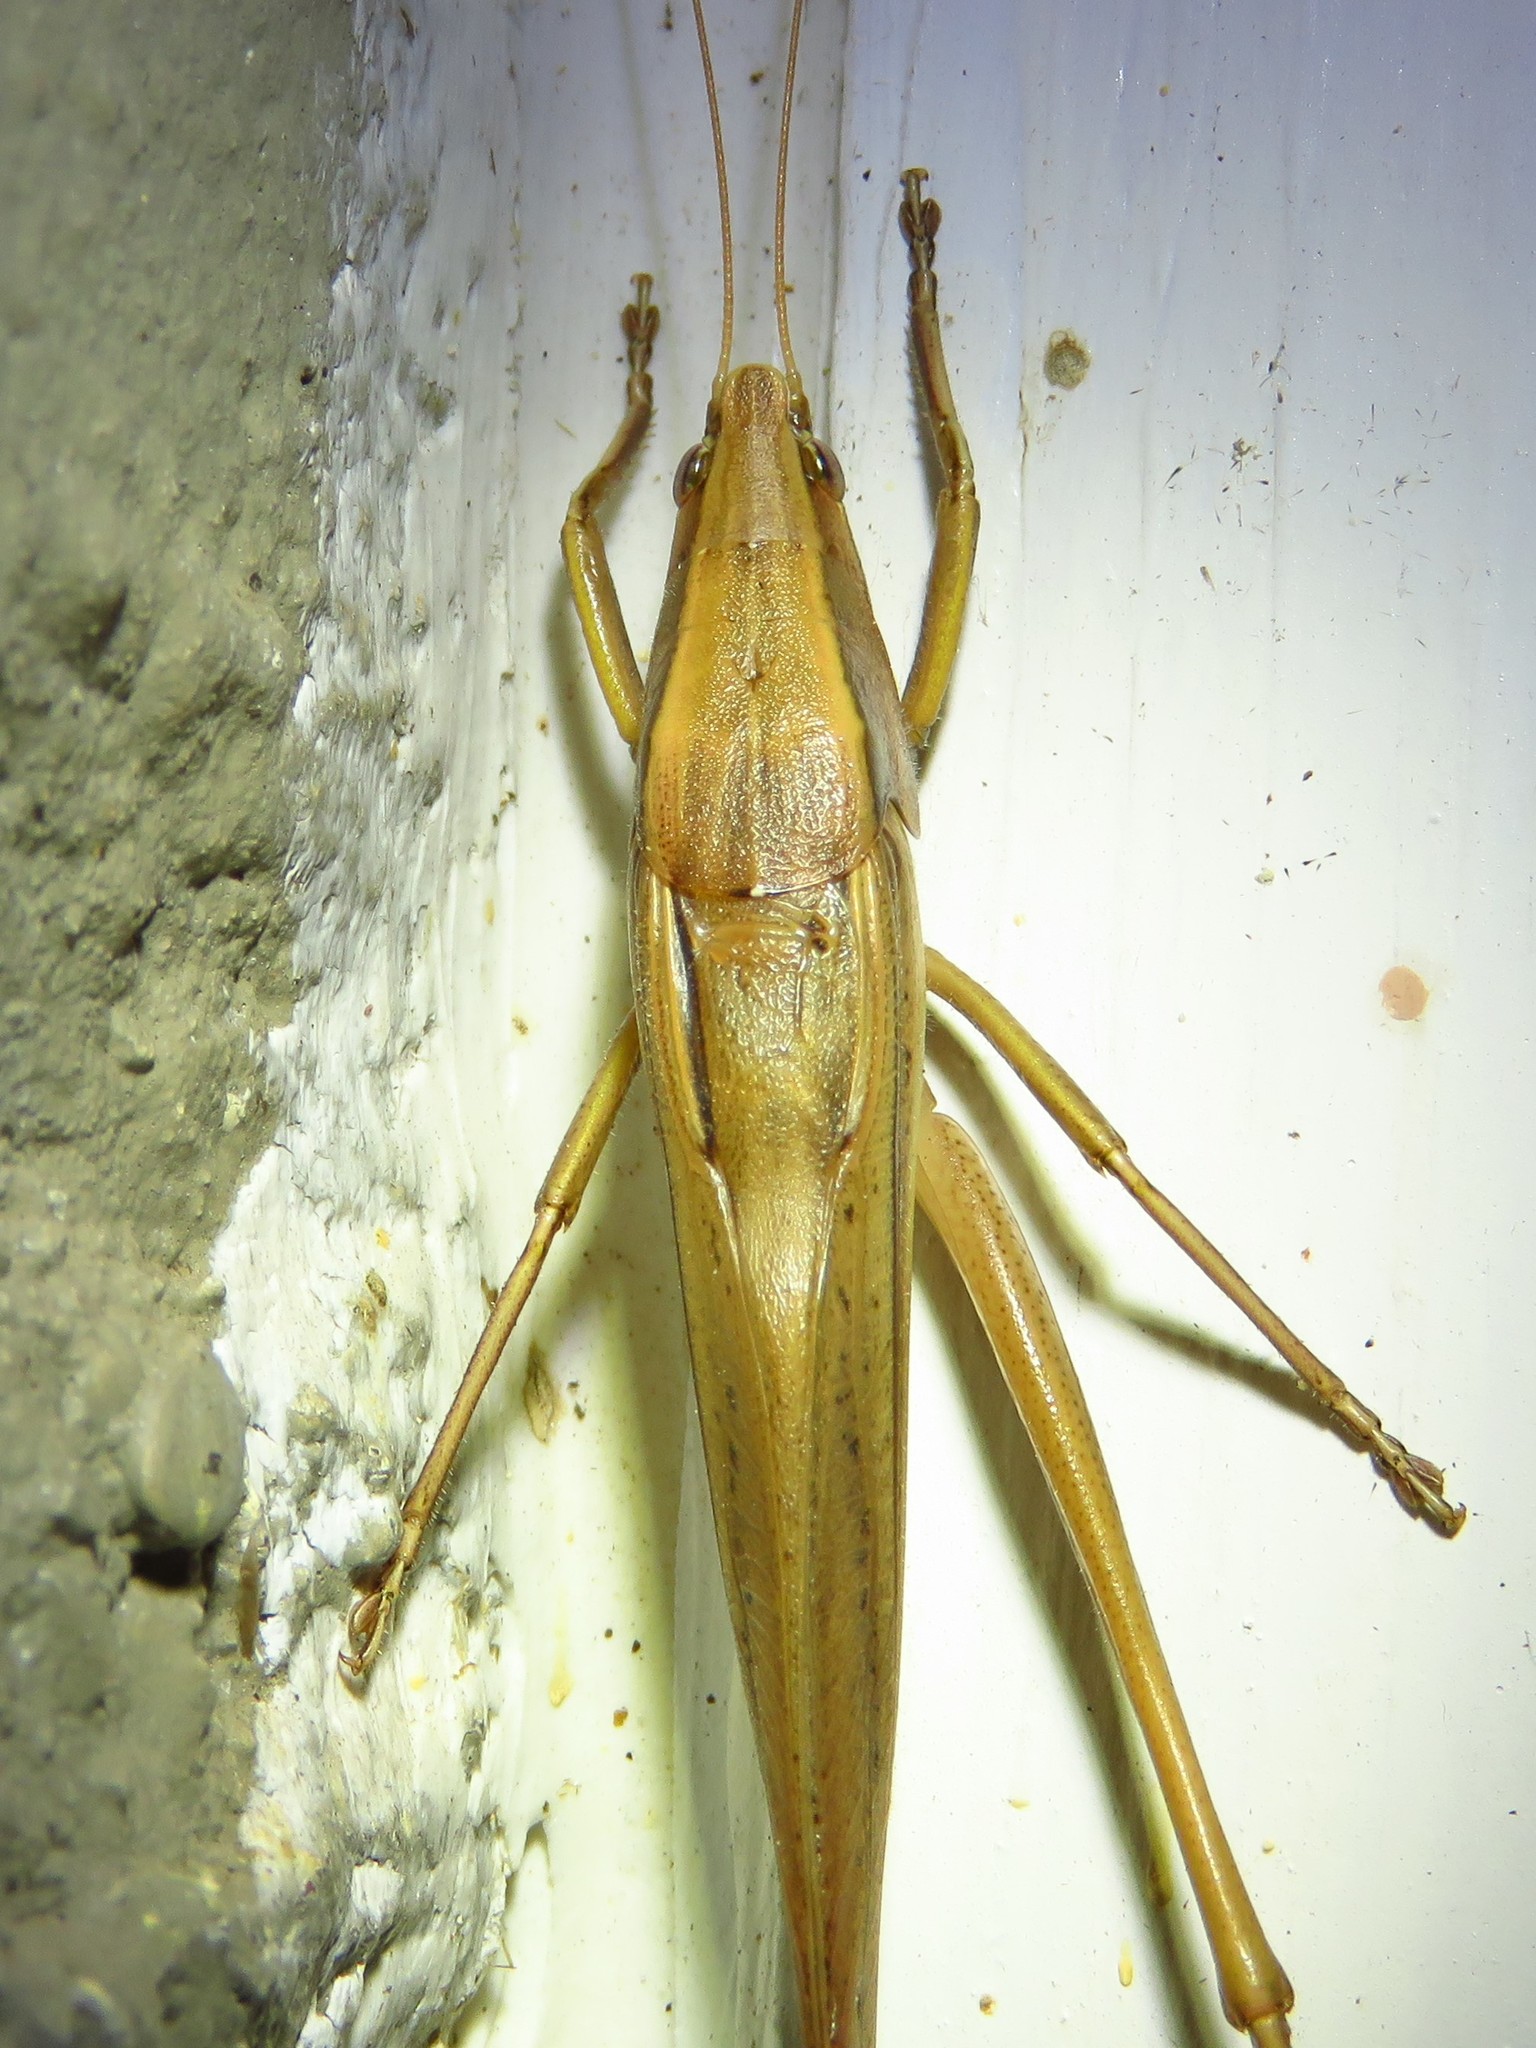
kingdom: Animalia
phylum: Arthropoda
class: Insecta
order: Orthoptera
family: Tettigoniidae
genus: Neoconocephalus
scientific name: Neoconocephalus triops
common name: Broad-tipped conehead
